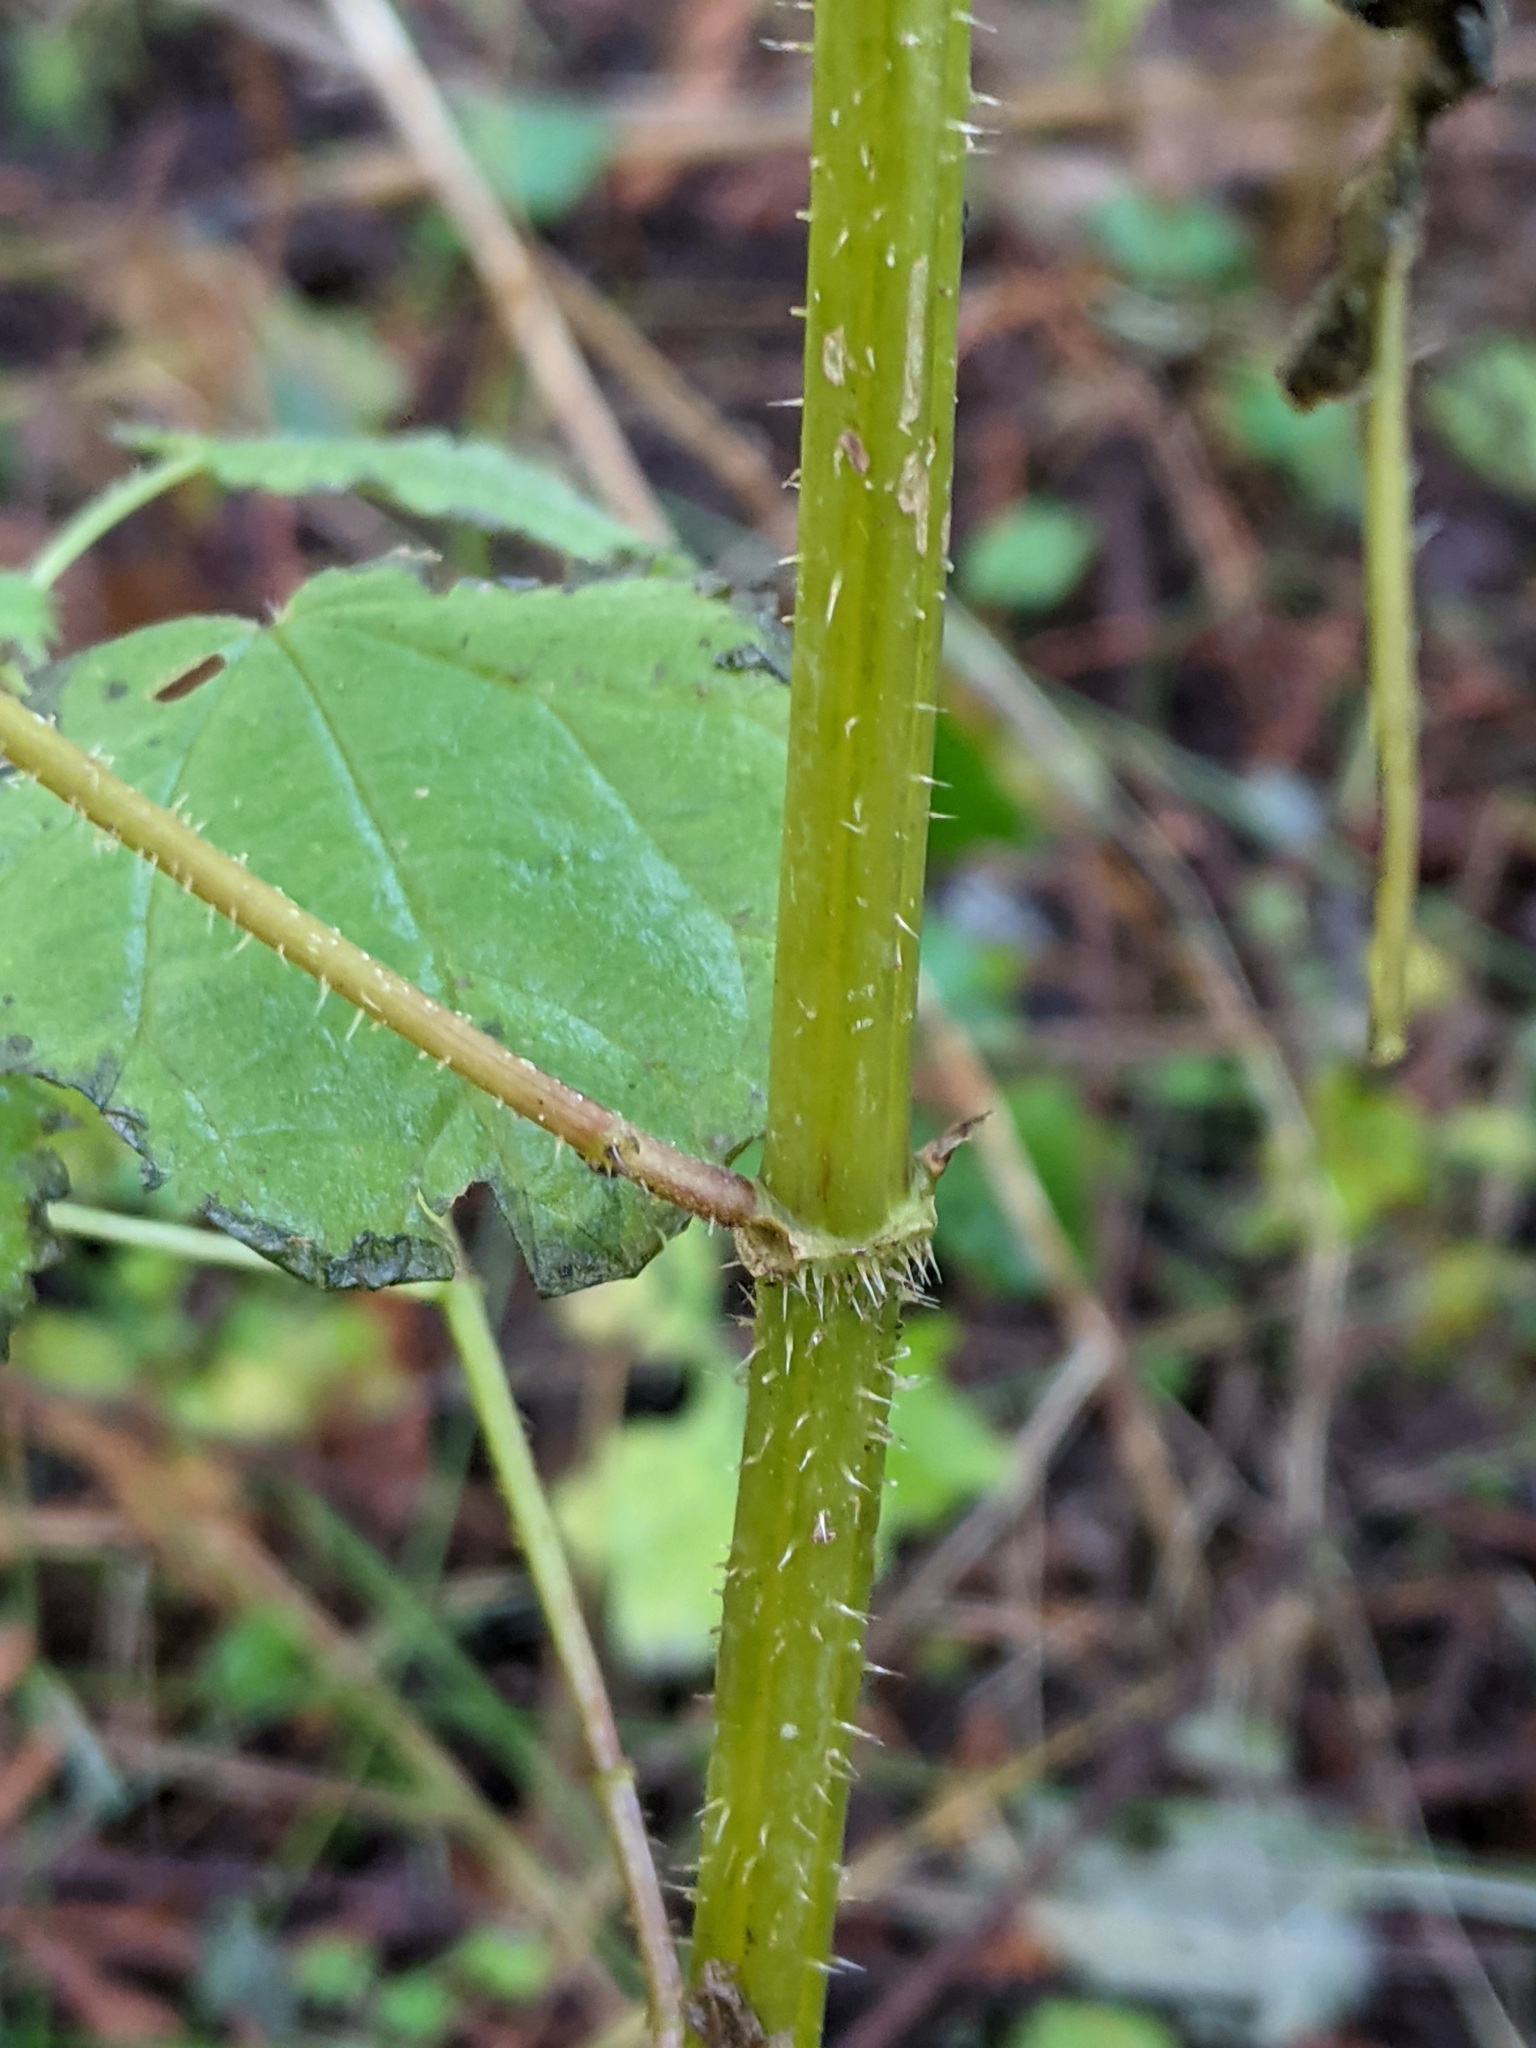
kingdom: Plantae
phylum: Tracheophyta
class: Magnoliopsida
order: Rosales
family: Urticaceae
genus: Urtica
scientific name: Urtica dioica
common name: Common nettle
